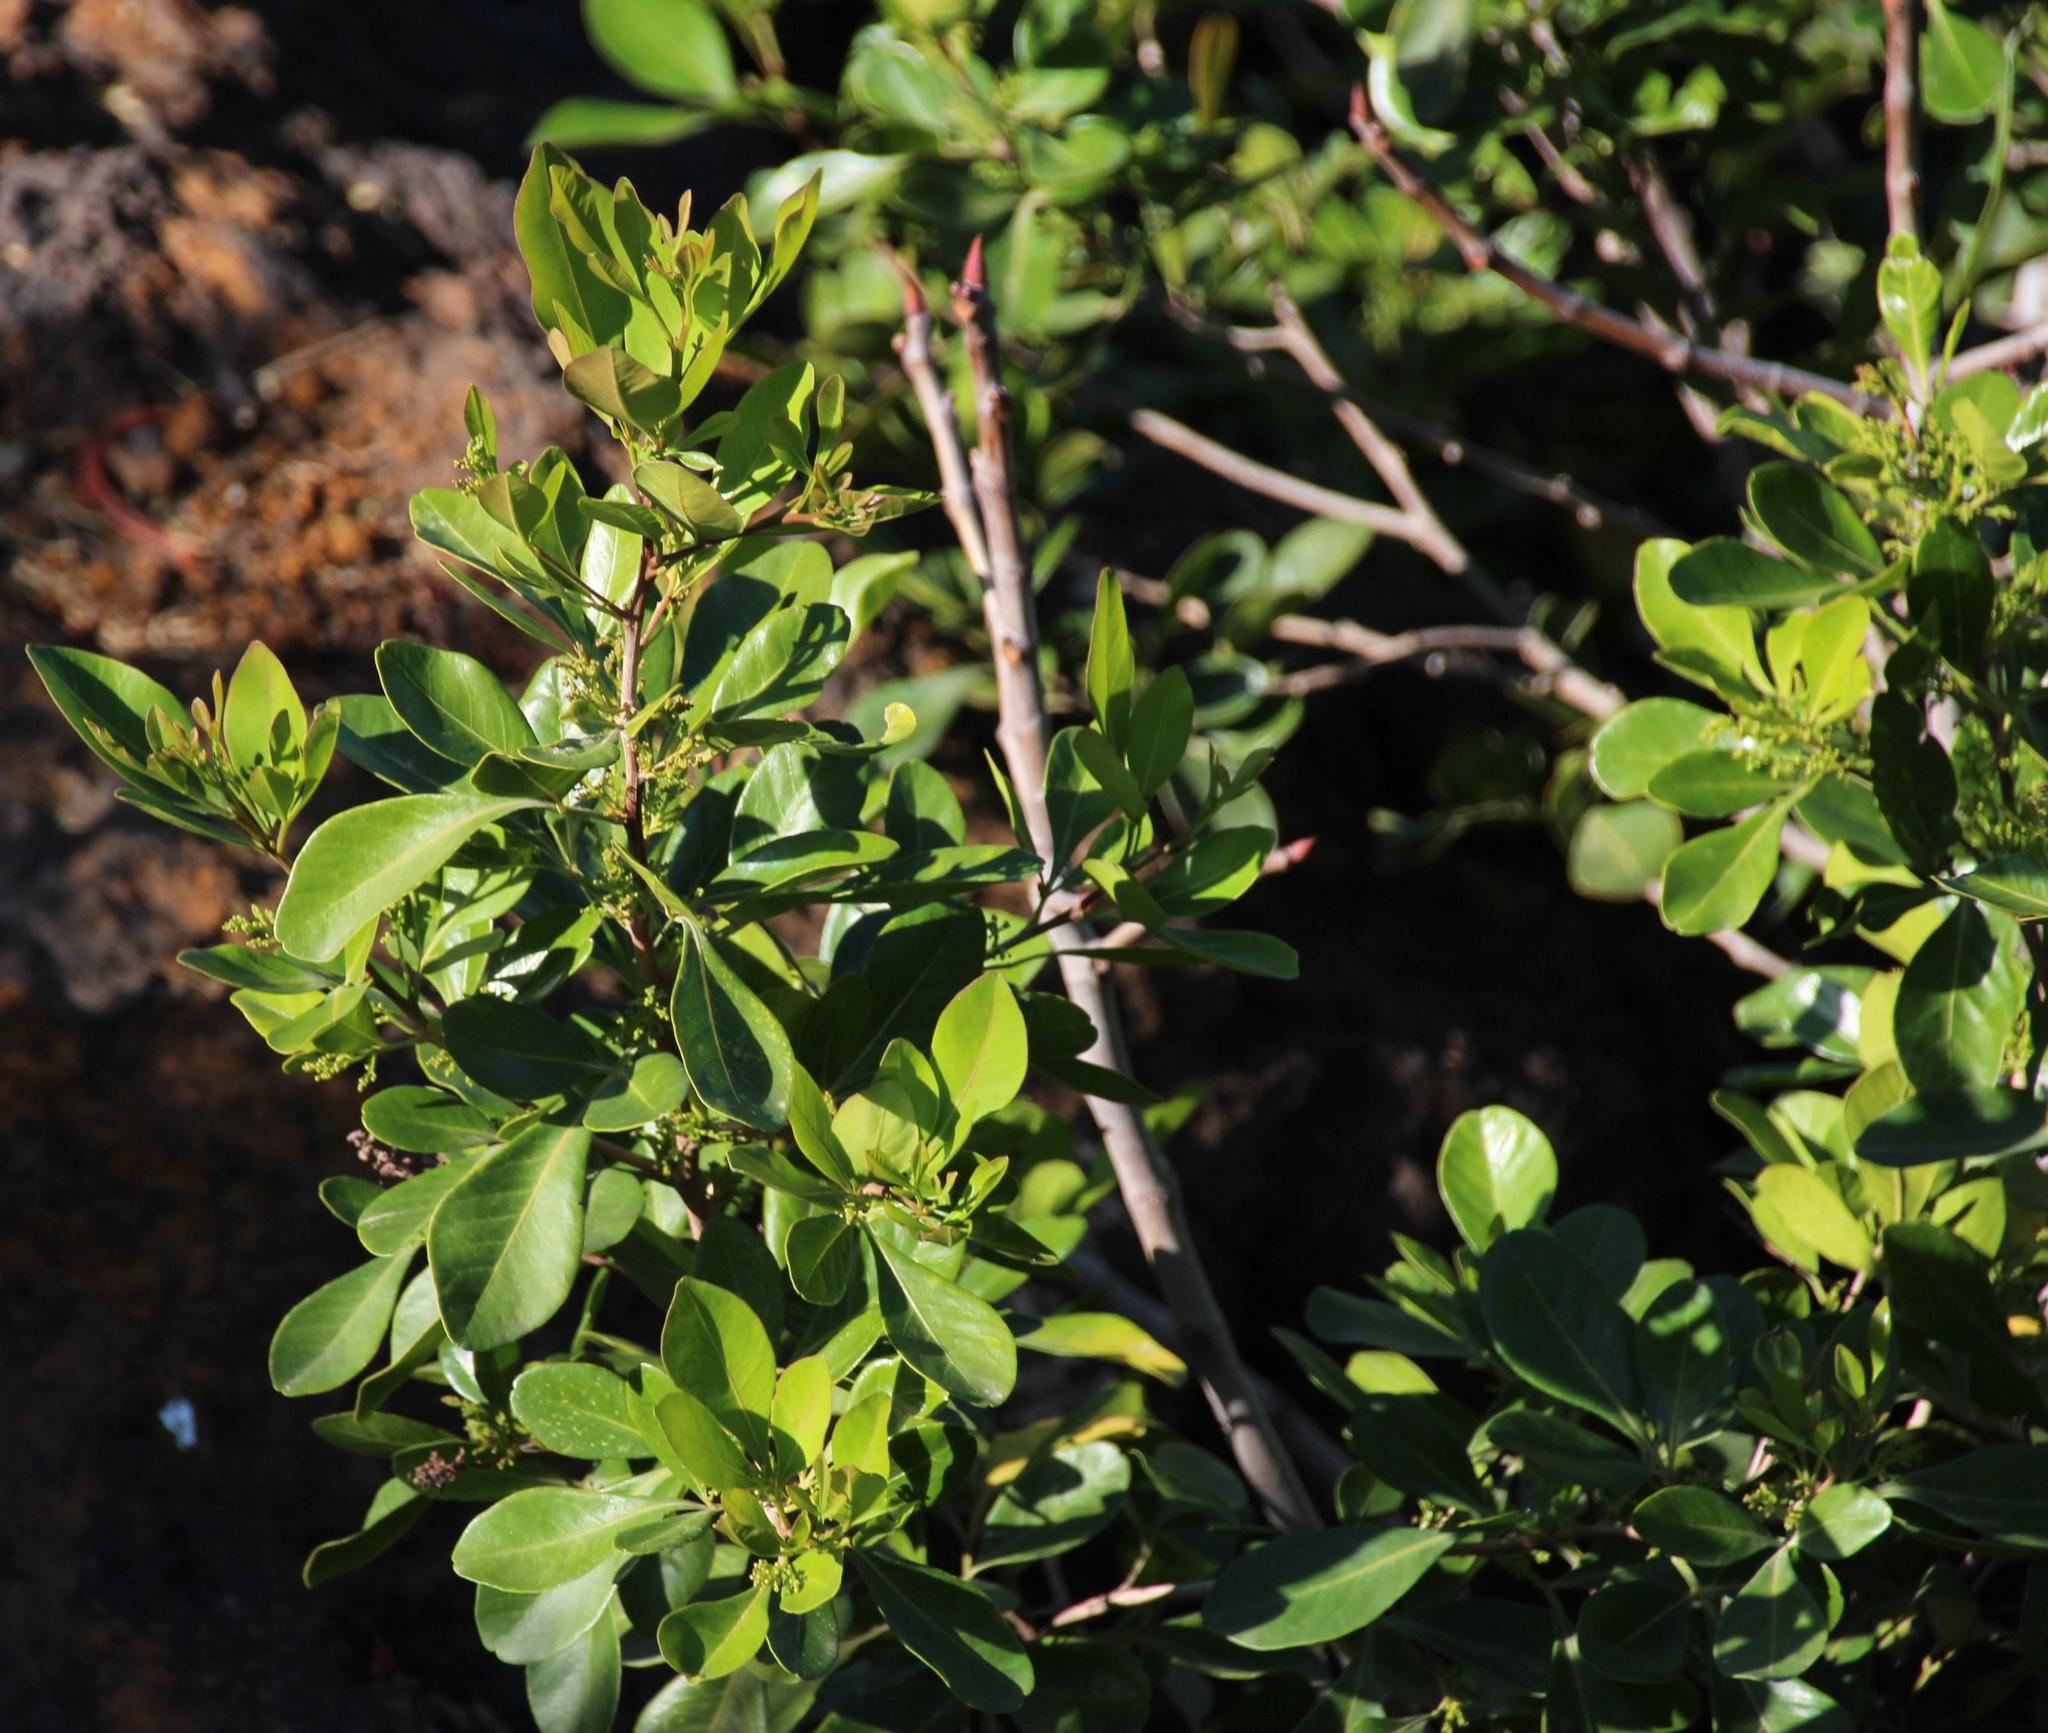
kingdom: Plantae
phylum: Tracheophyta
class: Magnoliopsida
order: Sapindales
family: Anacardiaceae
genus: Searsia
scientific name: Searsia lucida
